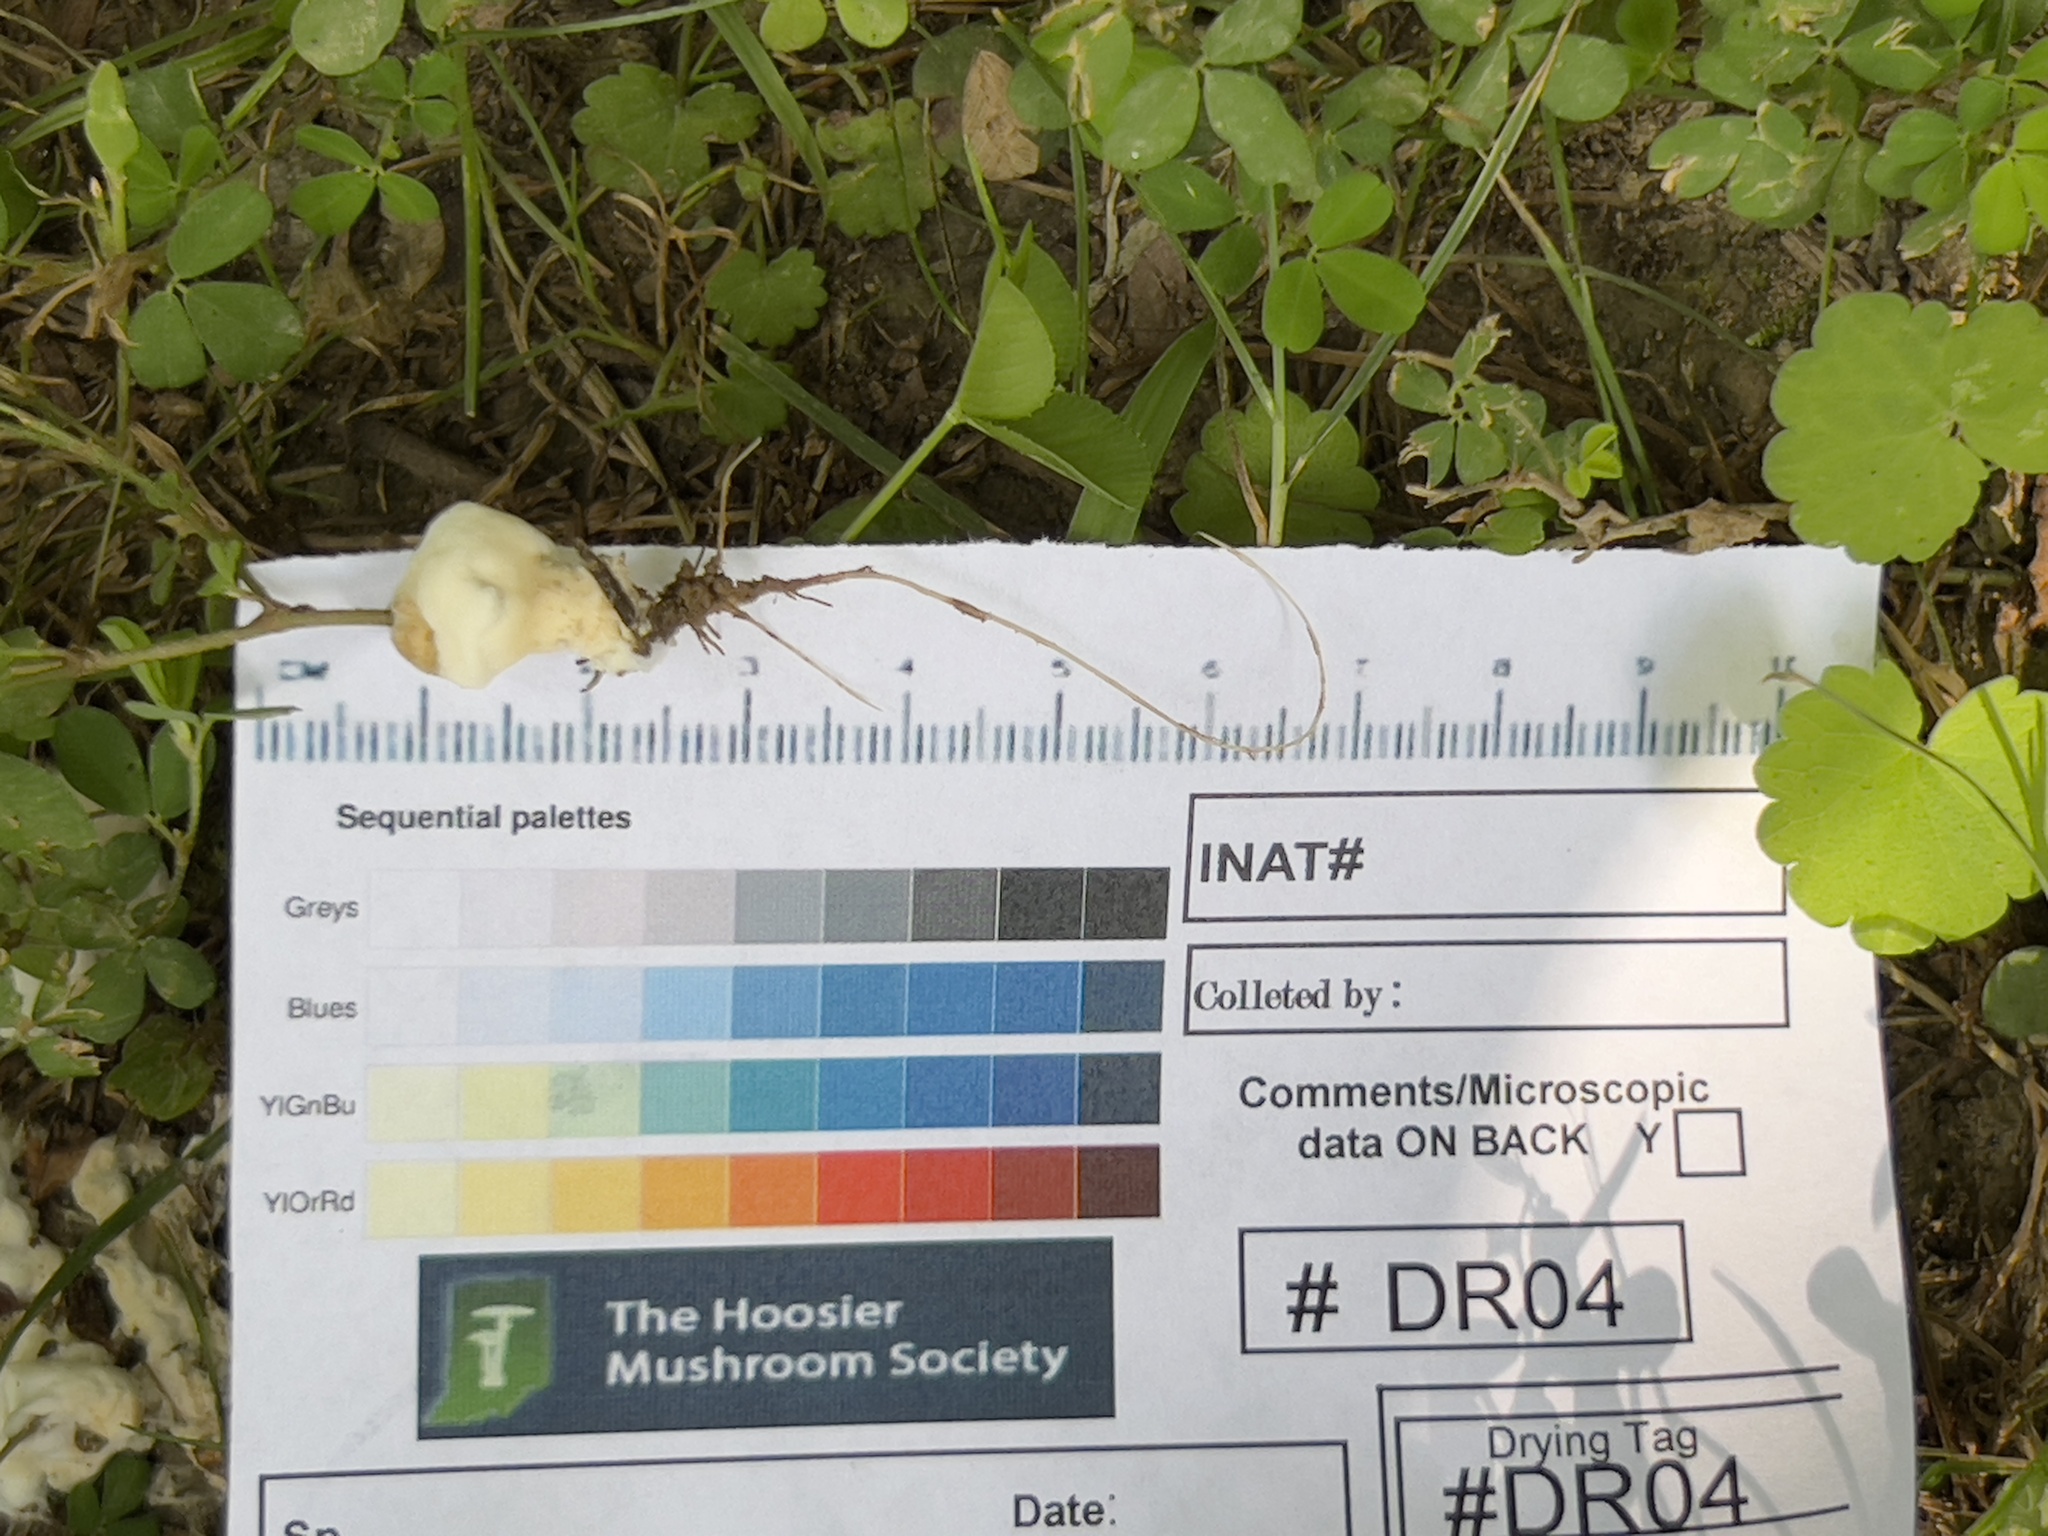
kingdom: Fungi
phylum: Basidiomycota
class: Agaricomycetes
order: Sebacinales
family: Sebacinaceae
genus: Sebacina
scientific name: Sebacina incrustans
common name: Enveloping crust
